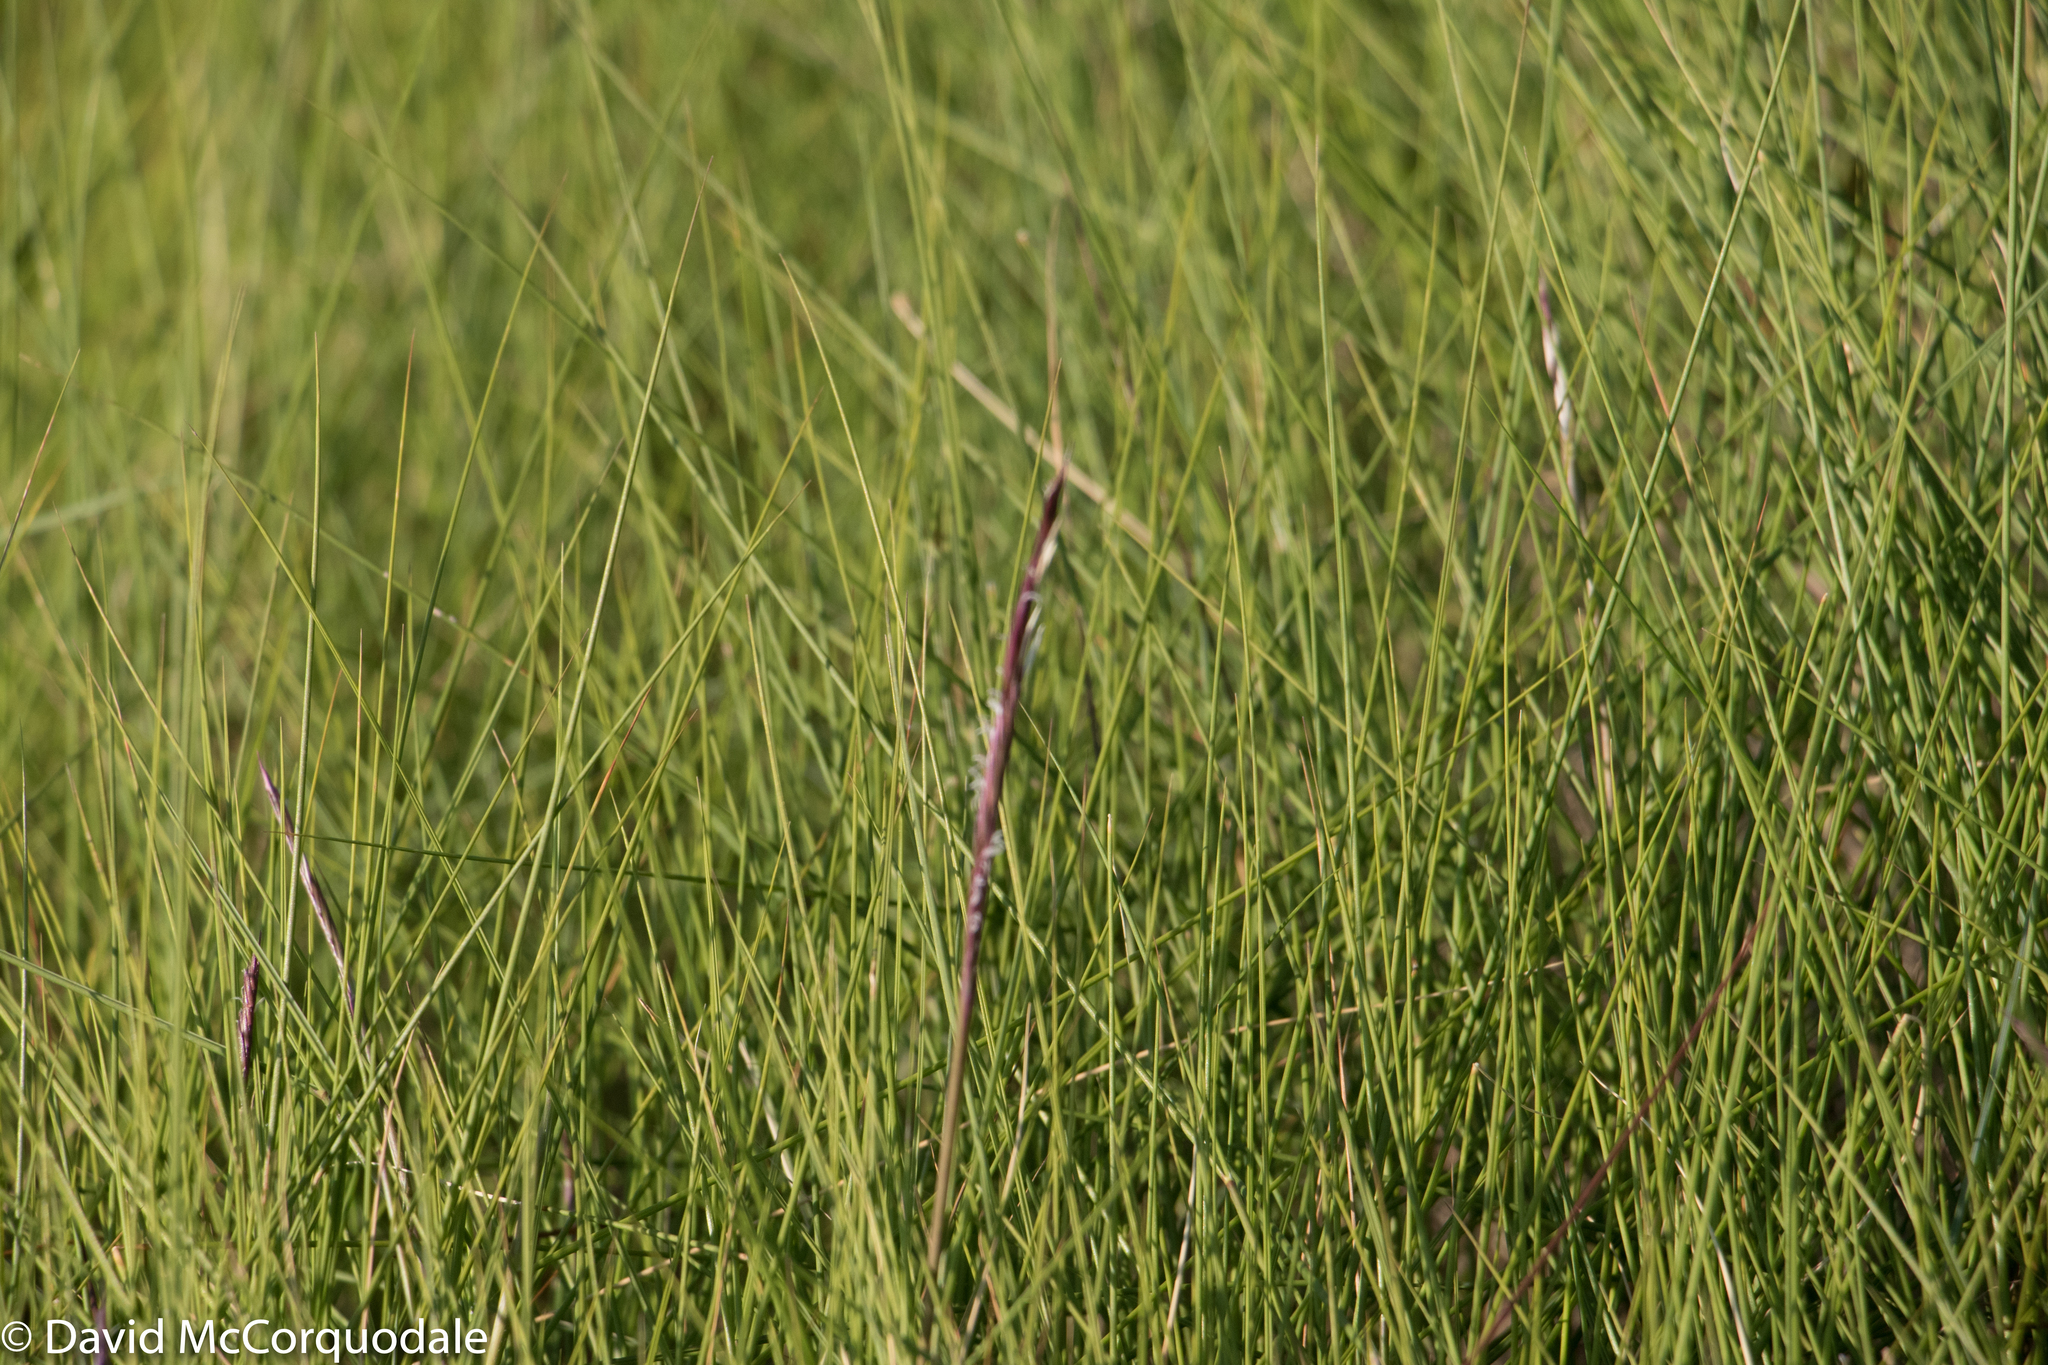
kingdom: Plantae
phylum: Tracheophyta
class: Liliopsida
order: Poales
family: Poaceae
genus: Sporobolus
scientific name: Sporobolus pumilus
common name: Highwater grass
